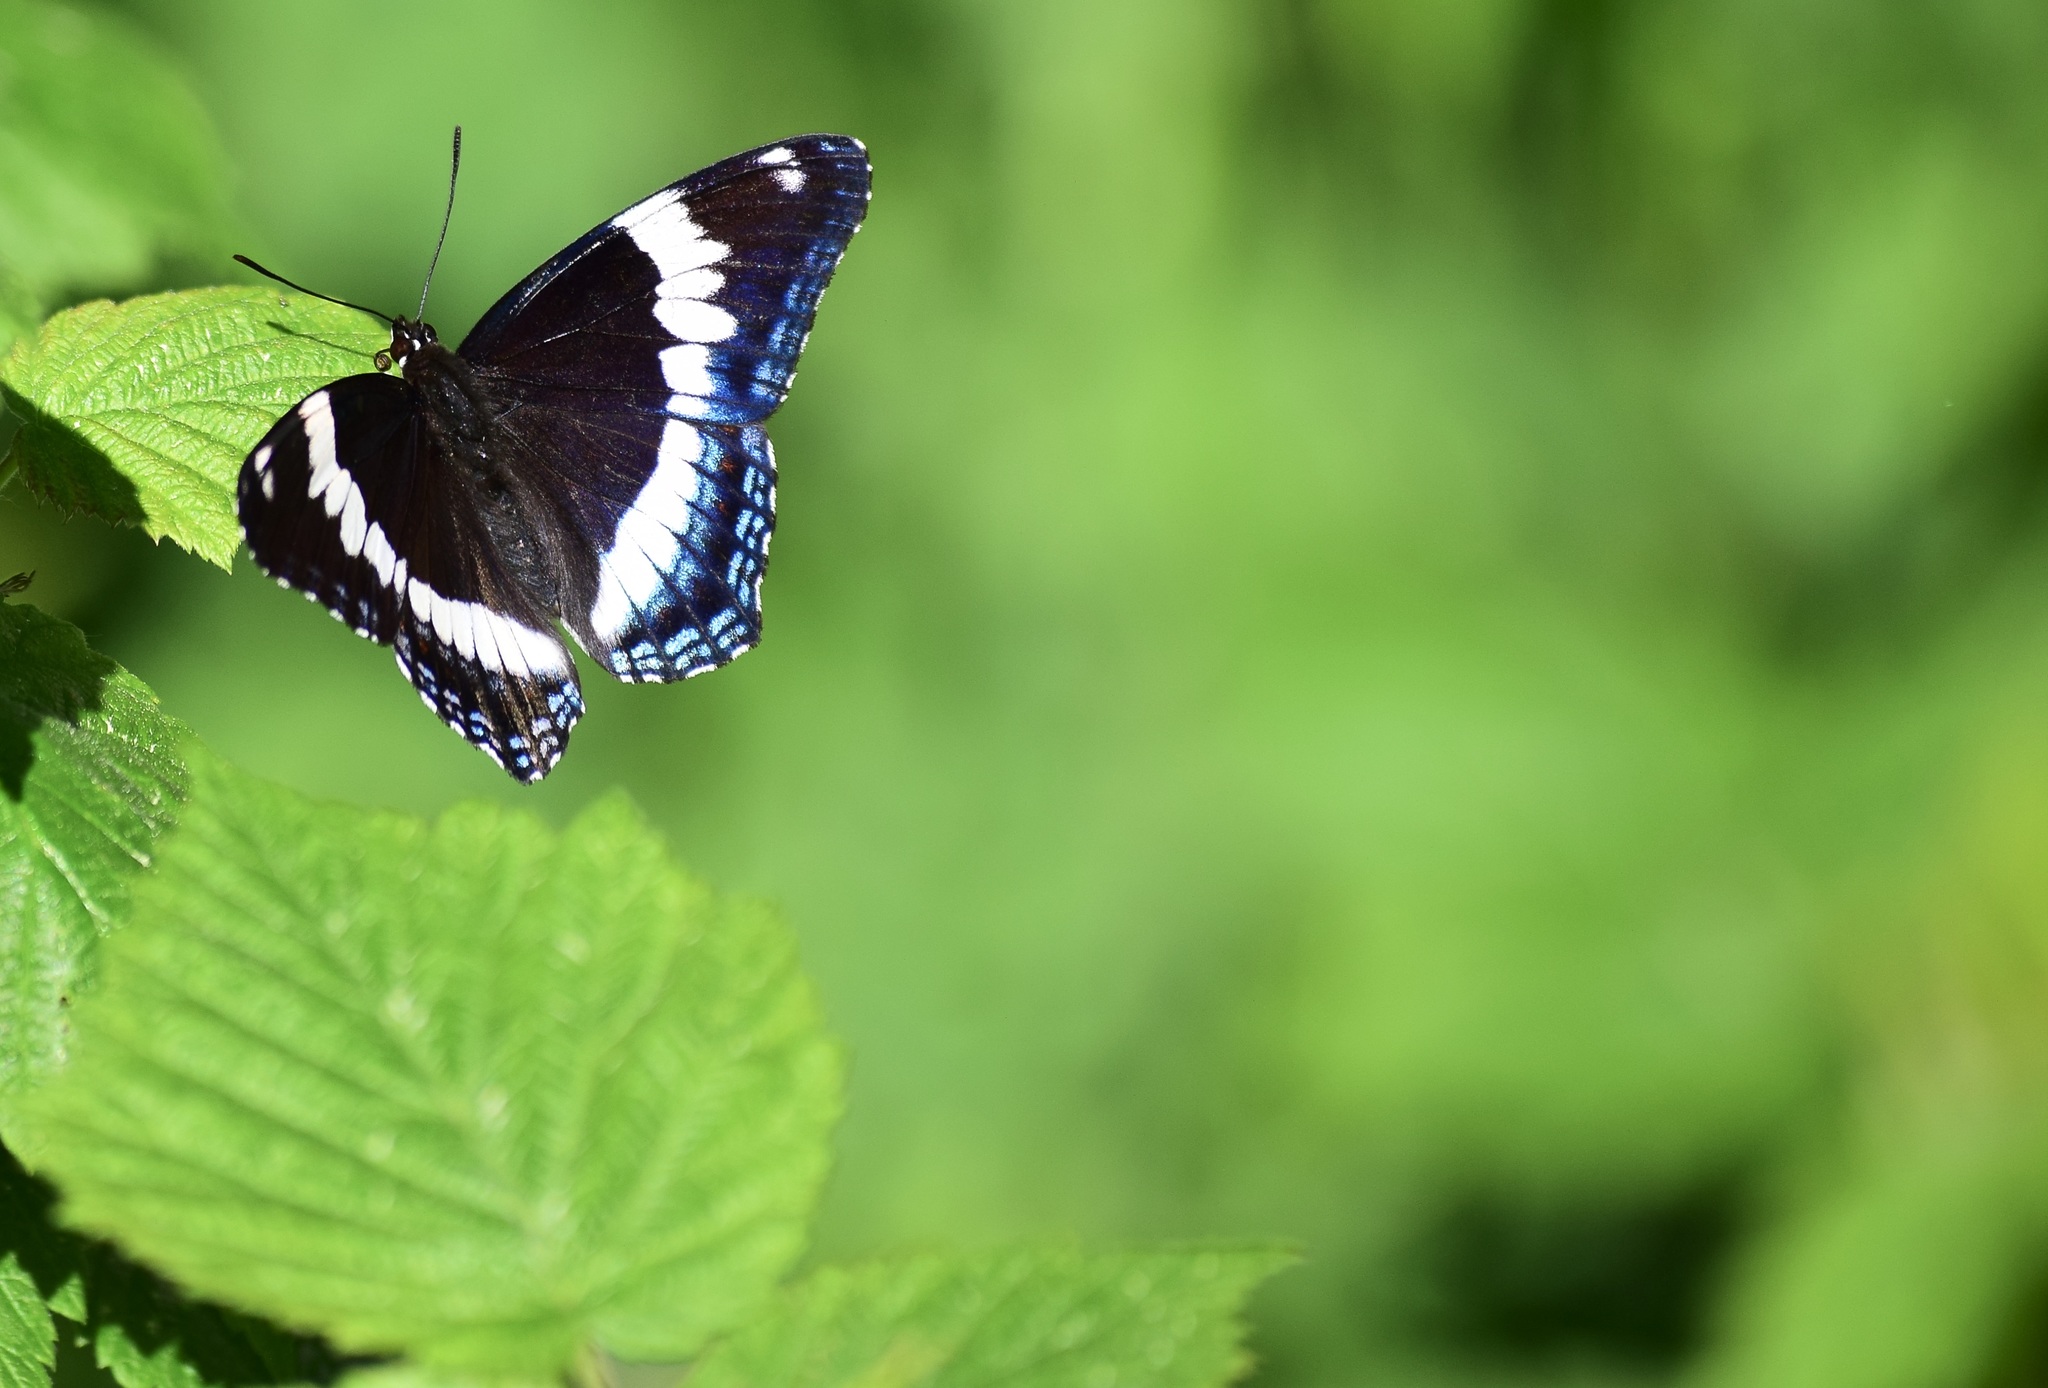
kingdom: Animalia
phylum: Arthropoda
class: Insecta
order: Lepidoptera
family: Nymphalidae
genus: Limenitis
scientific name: Limenitis arthemis
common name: Red-spotted admiral
